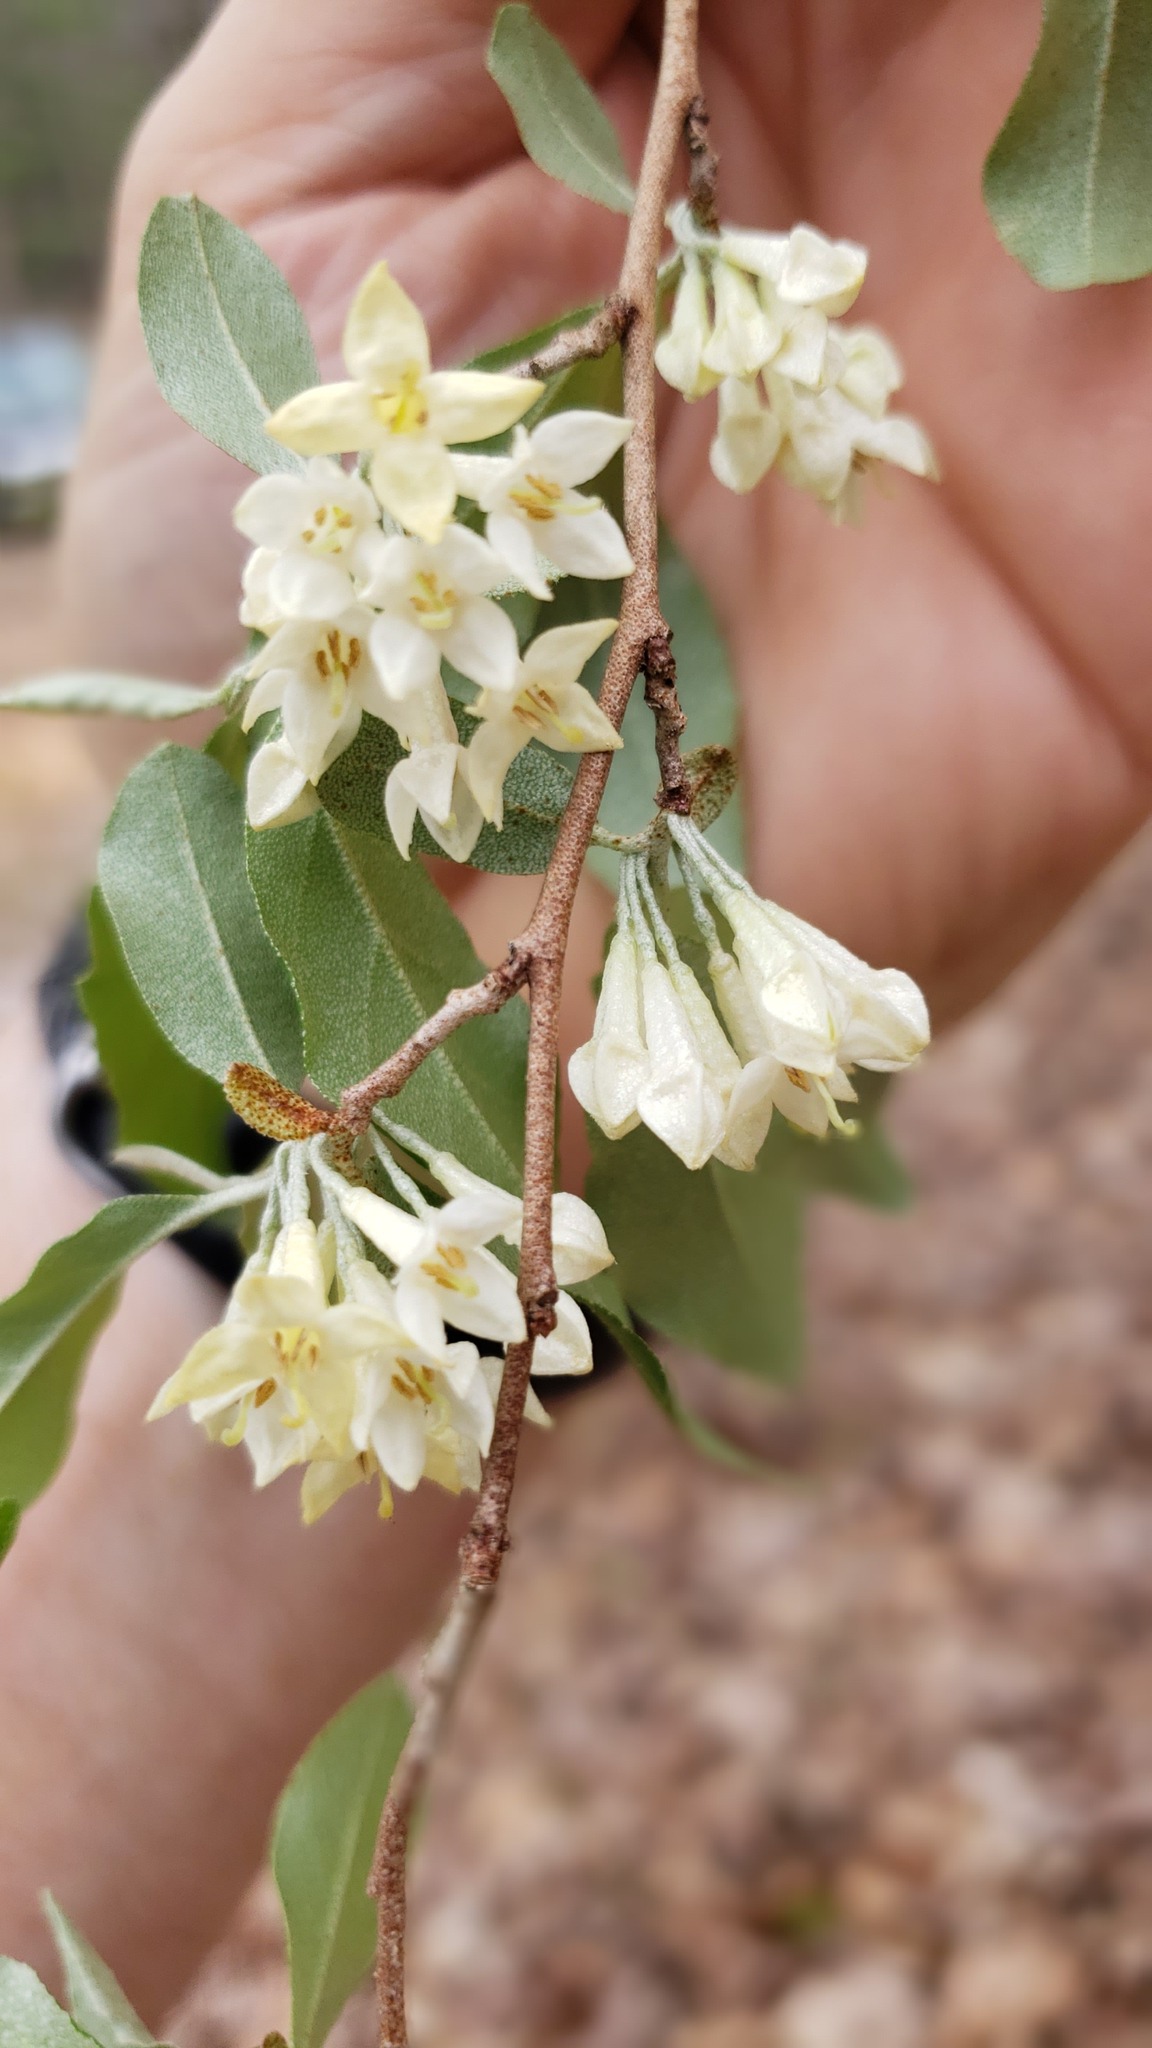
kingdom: Plantae
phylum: Tracheophyta
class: Magnoliopsida
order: Rosales
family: Elaeagnaceae
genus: Elaeagnus
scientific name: Elaeagnus umbellata
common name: Autumn olive
